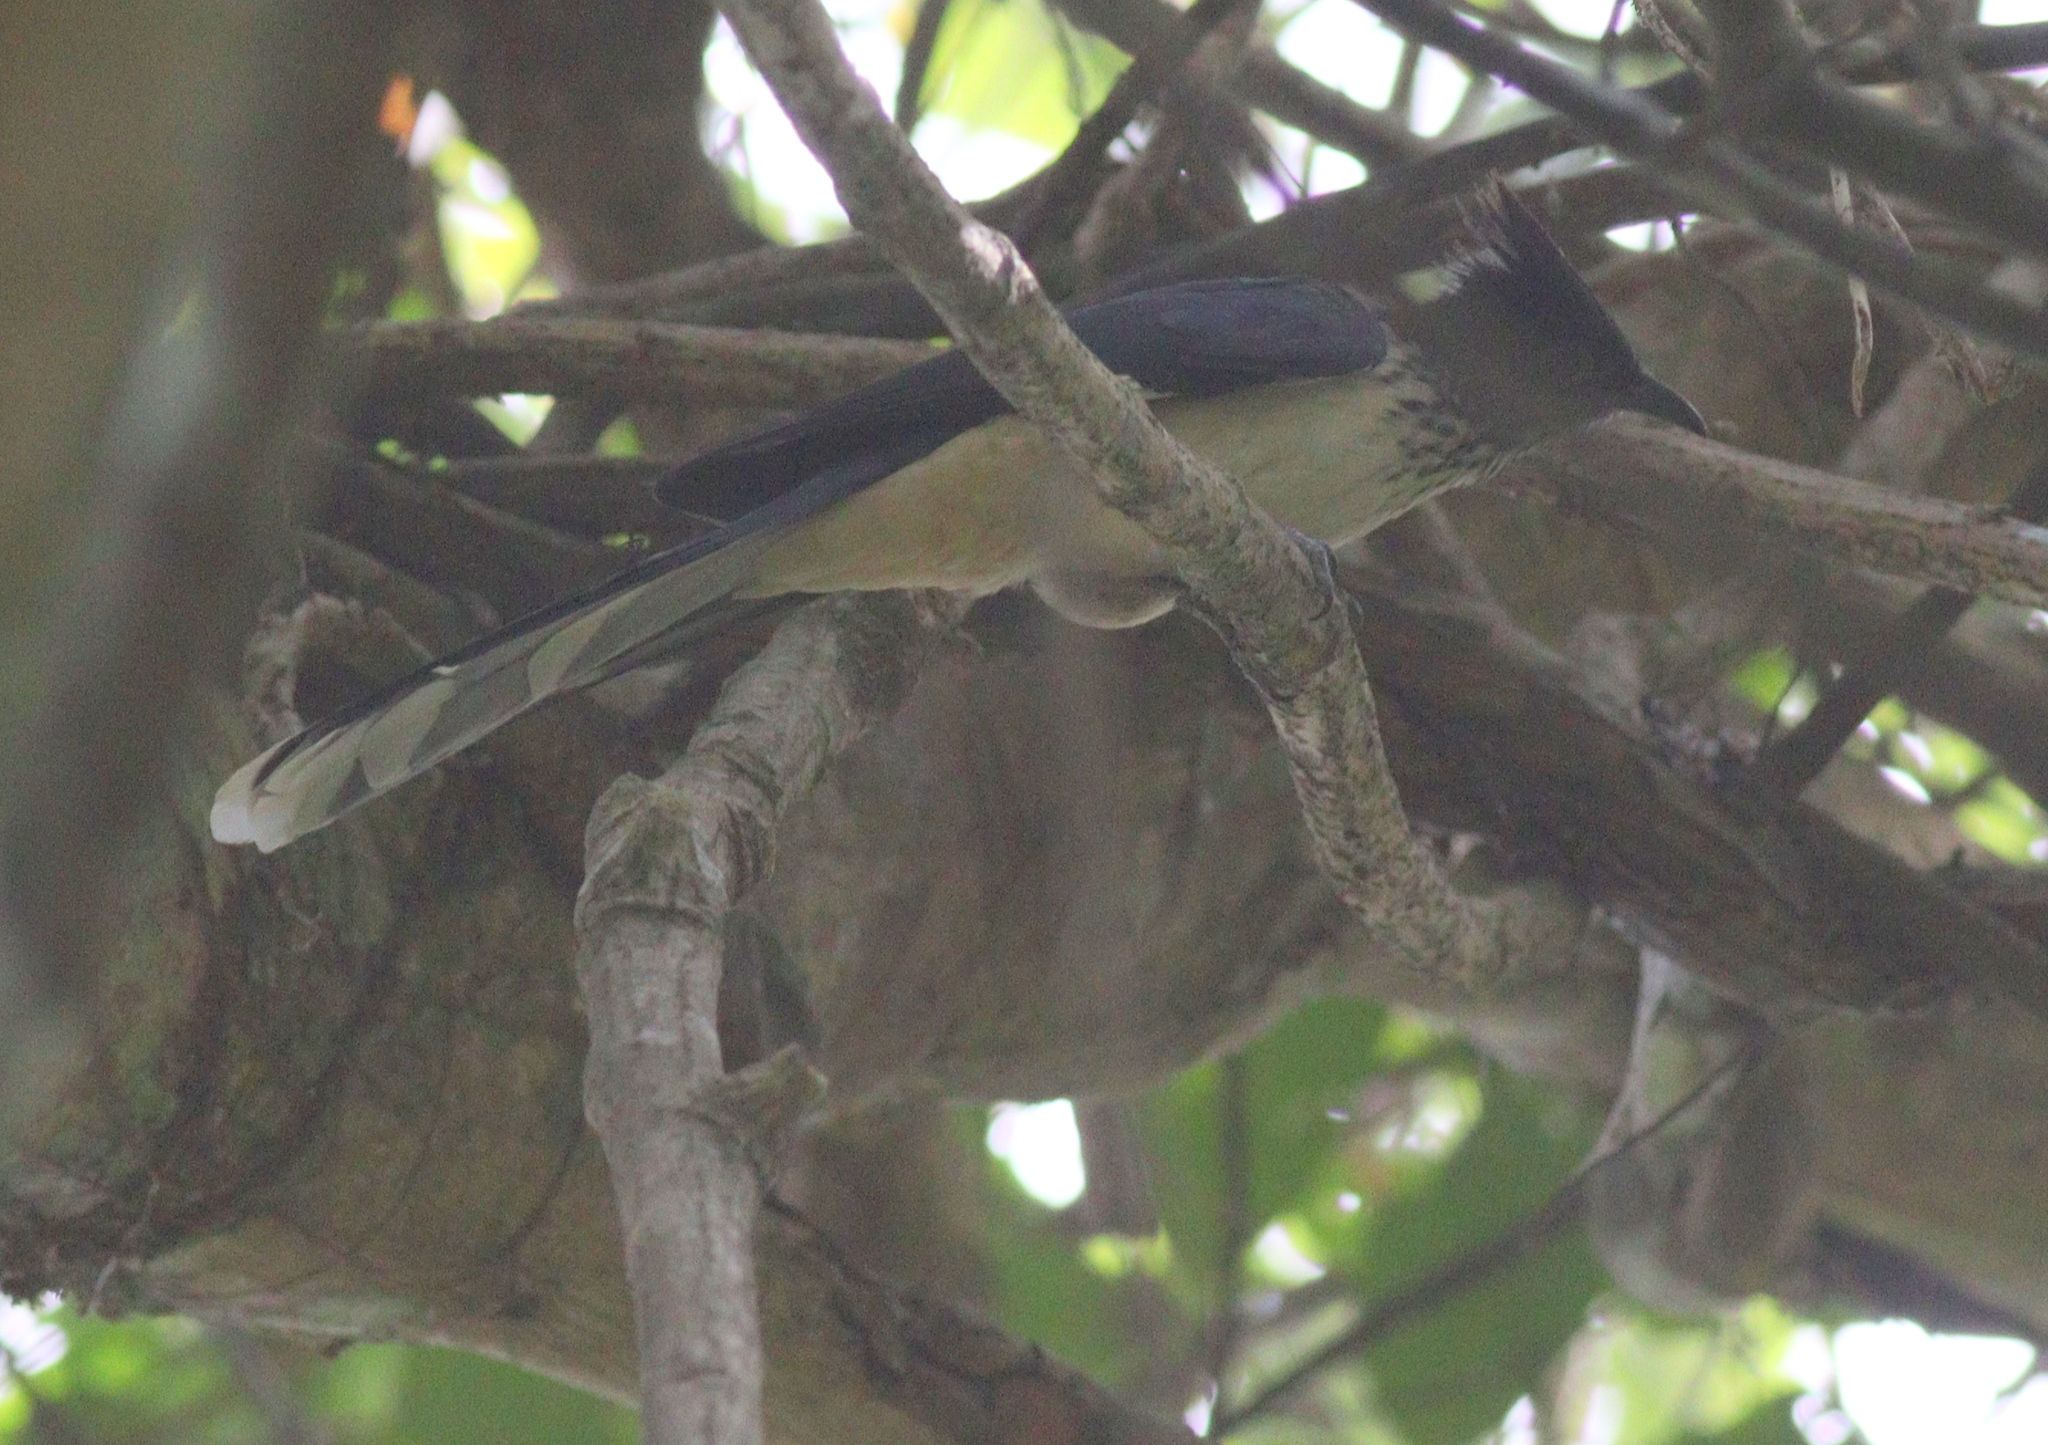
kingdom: Animalia
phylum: Chordata
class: Aves
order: Cuculiformes
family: Cuculidae
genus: Clamator
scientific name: Clamator levaillantii
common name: Levaillant's cuckoo
